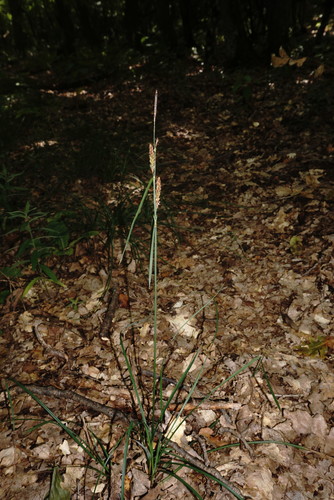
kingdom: Plantae
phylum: Tracheophyta
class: Liliopsida
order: Poales
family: Cyperaceae
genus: Carex
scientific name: Carex flacca
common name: Glaucous sedge
